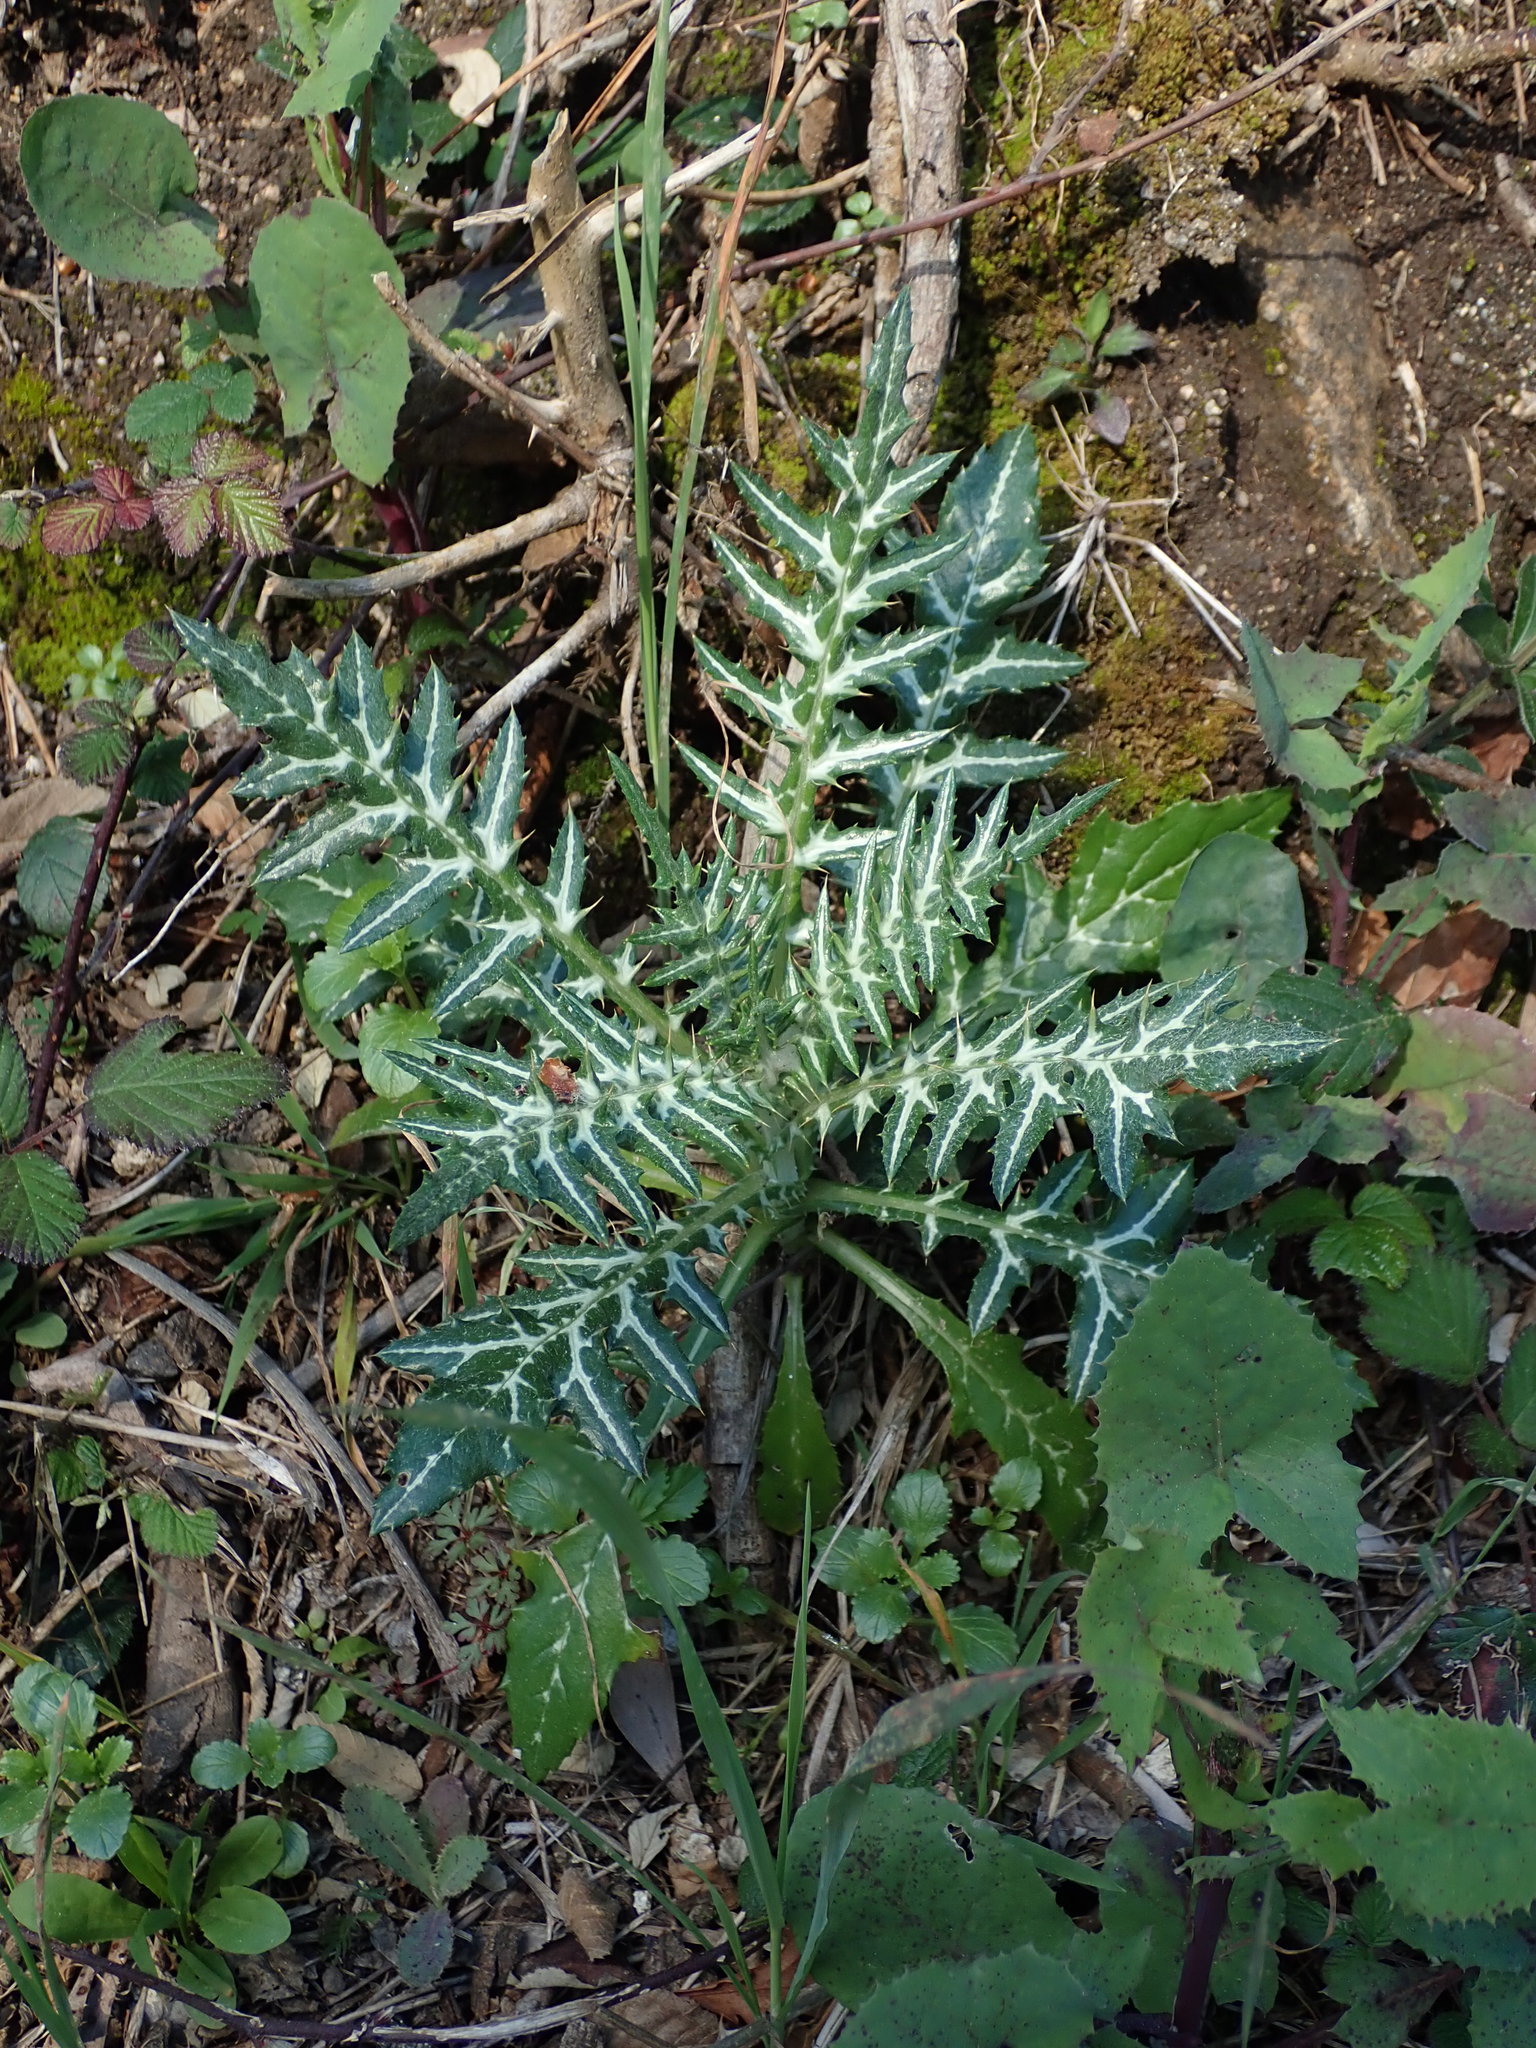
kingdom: Plantae
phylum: Tracheophyta
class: Magnoliopsida
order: Asterales
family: Asteraceae
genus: Galactites
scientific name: Galactites tomentosa
